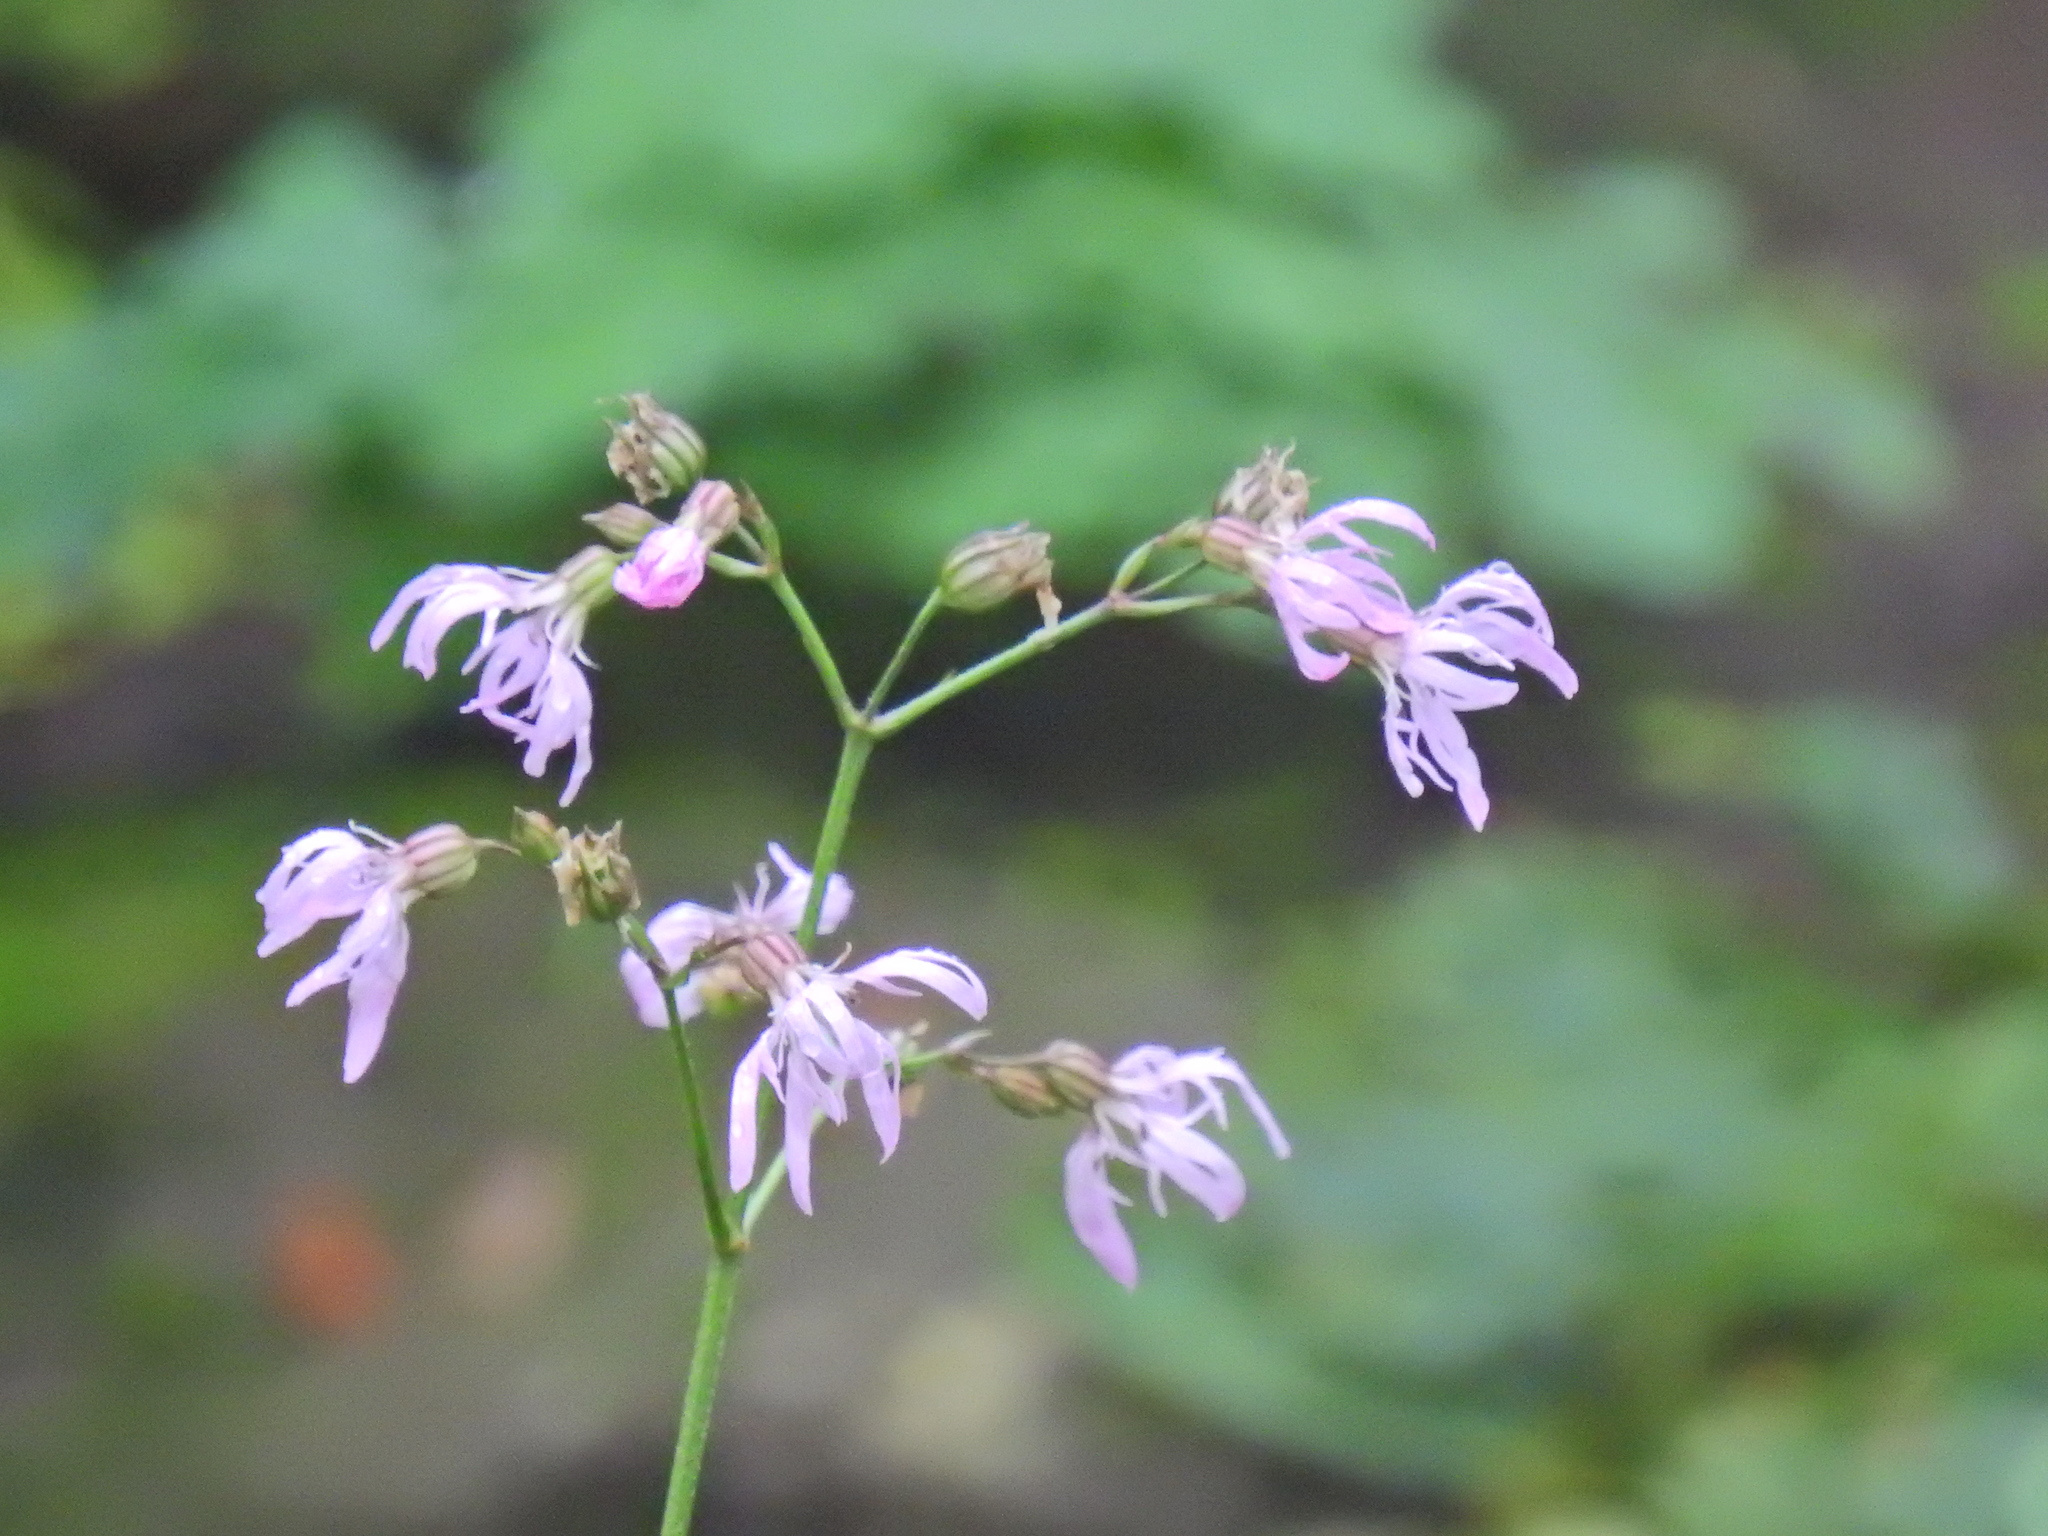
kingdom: Plantae
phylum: Tracheophyta
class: Magnoliopsida
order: Caryophyllales
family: Caryophyllaceae
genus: Silene
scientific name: Silene flos-cuculi
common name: Ragged-robin
